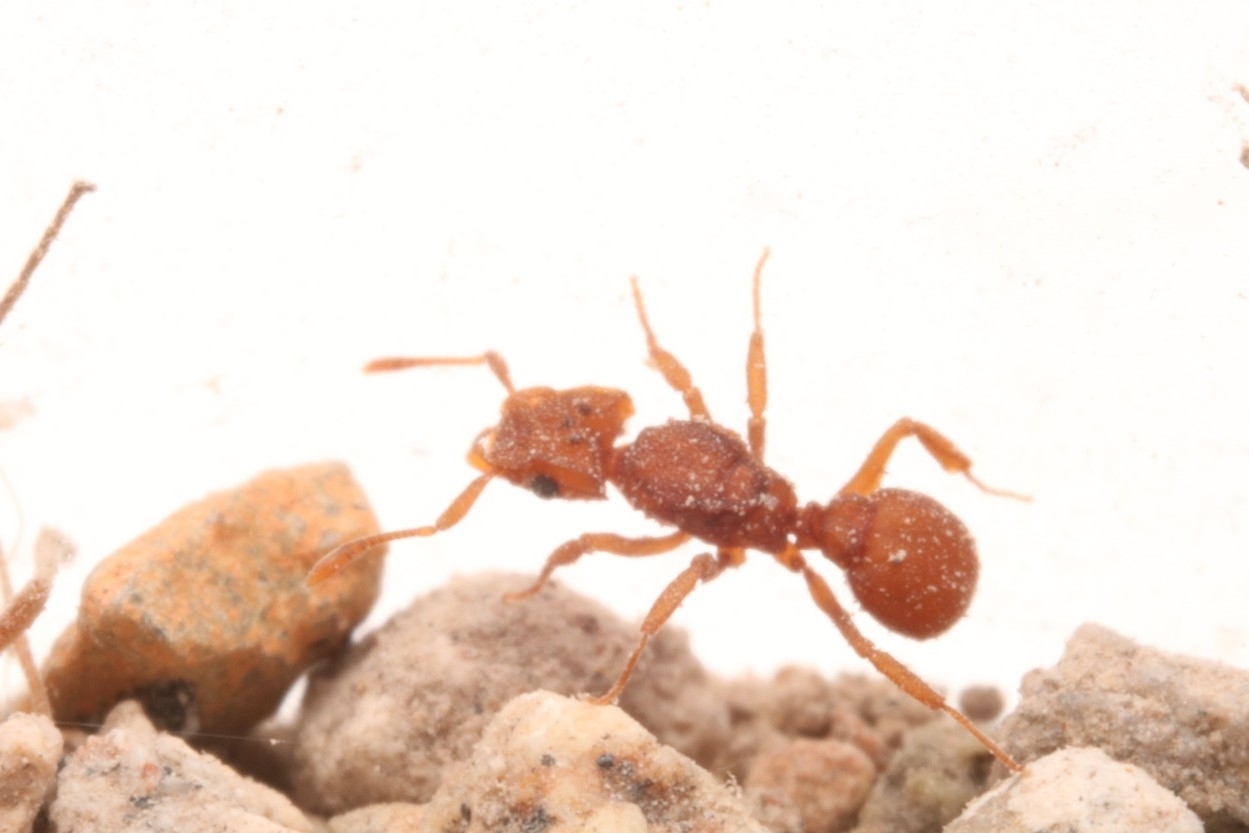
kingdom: Animalia
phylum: Arthropoda
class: Insecta
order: Hymenoptera
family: Formicidae
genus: Cyphomyrmex
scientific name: Cyphomyrmex wheeleri
